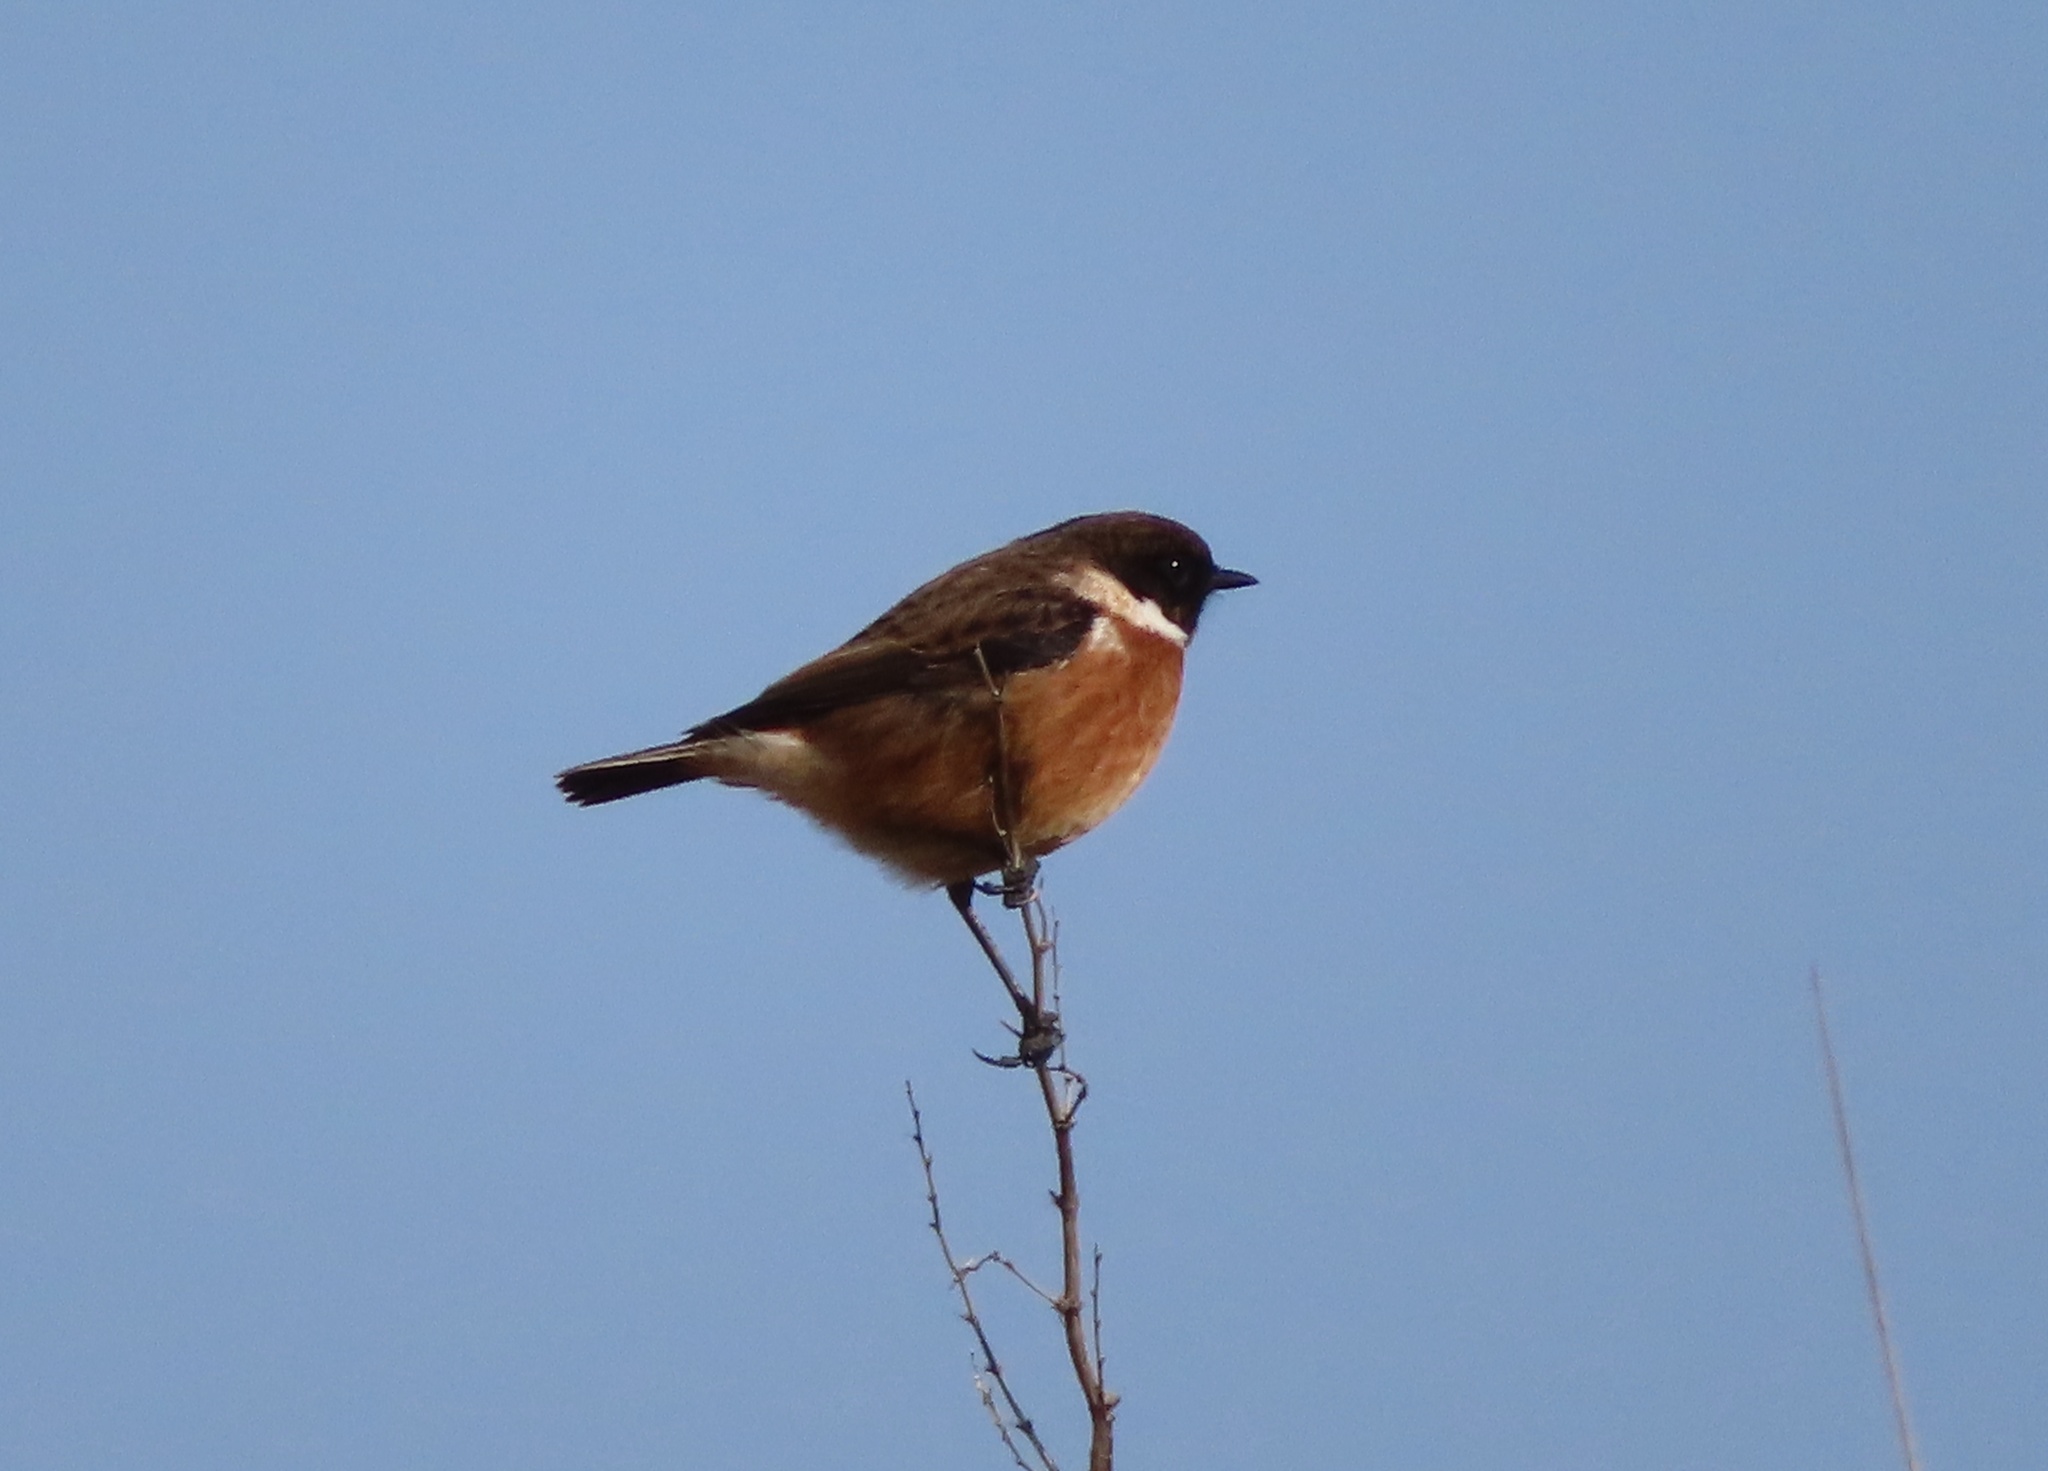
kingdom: Animalia
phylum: Chordata
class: Aves
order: Passeriformes
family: Muscicapidae
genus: Saxicola
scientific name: Saxicola rubicola
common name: European stonechat
